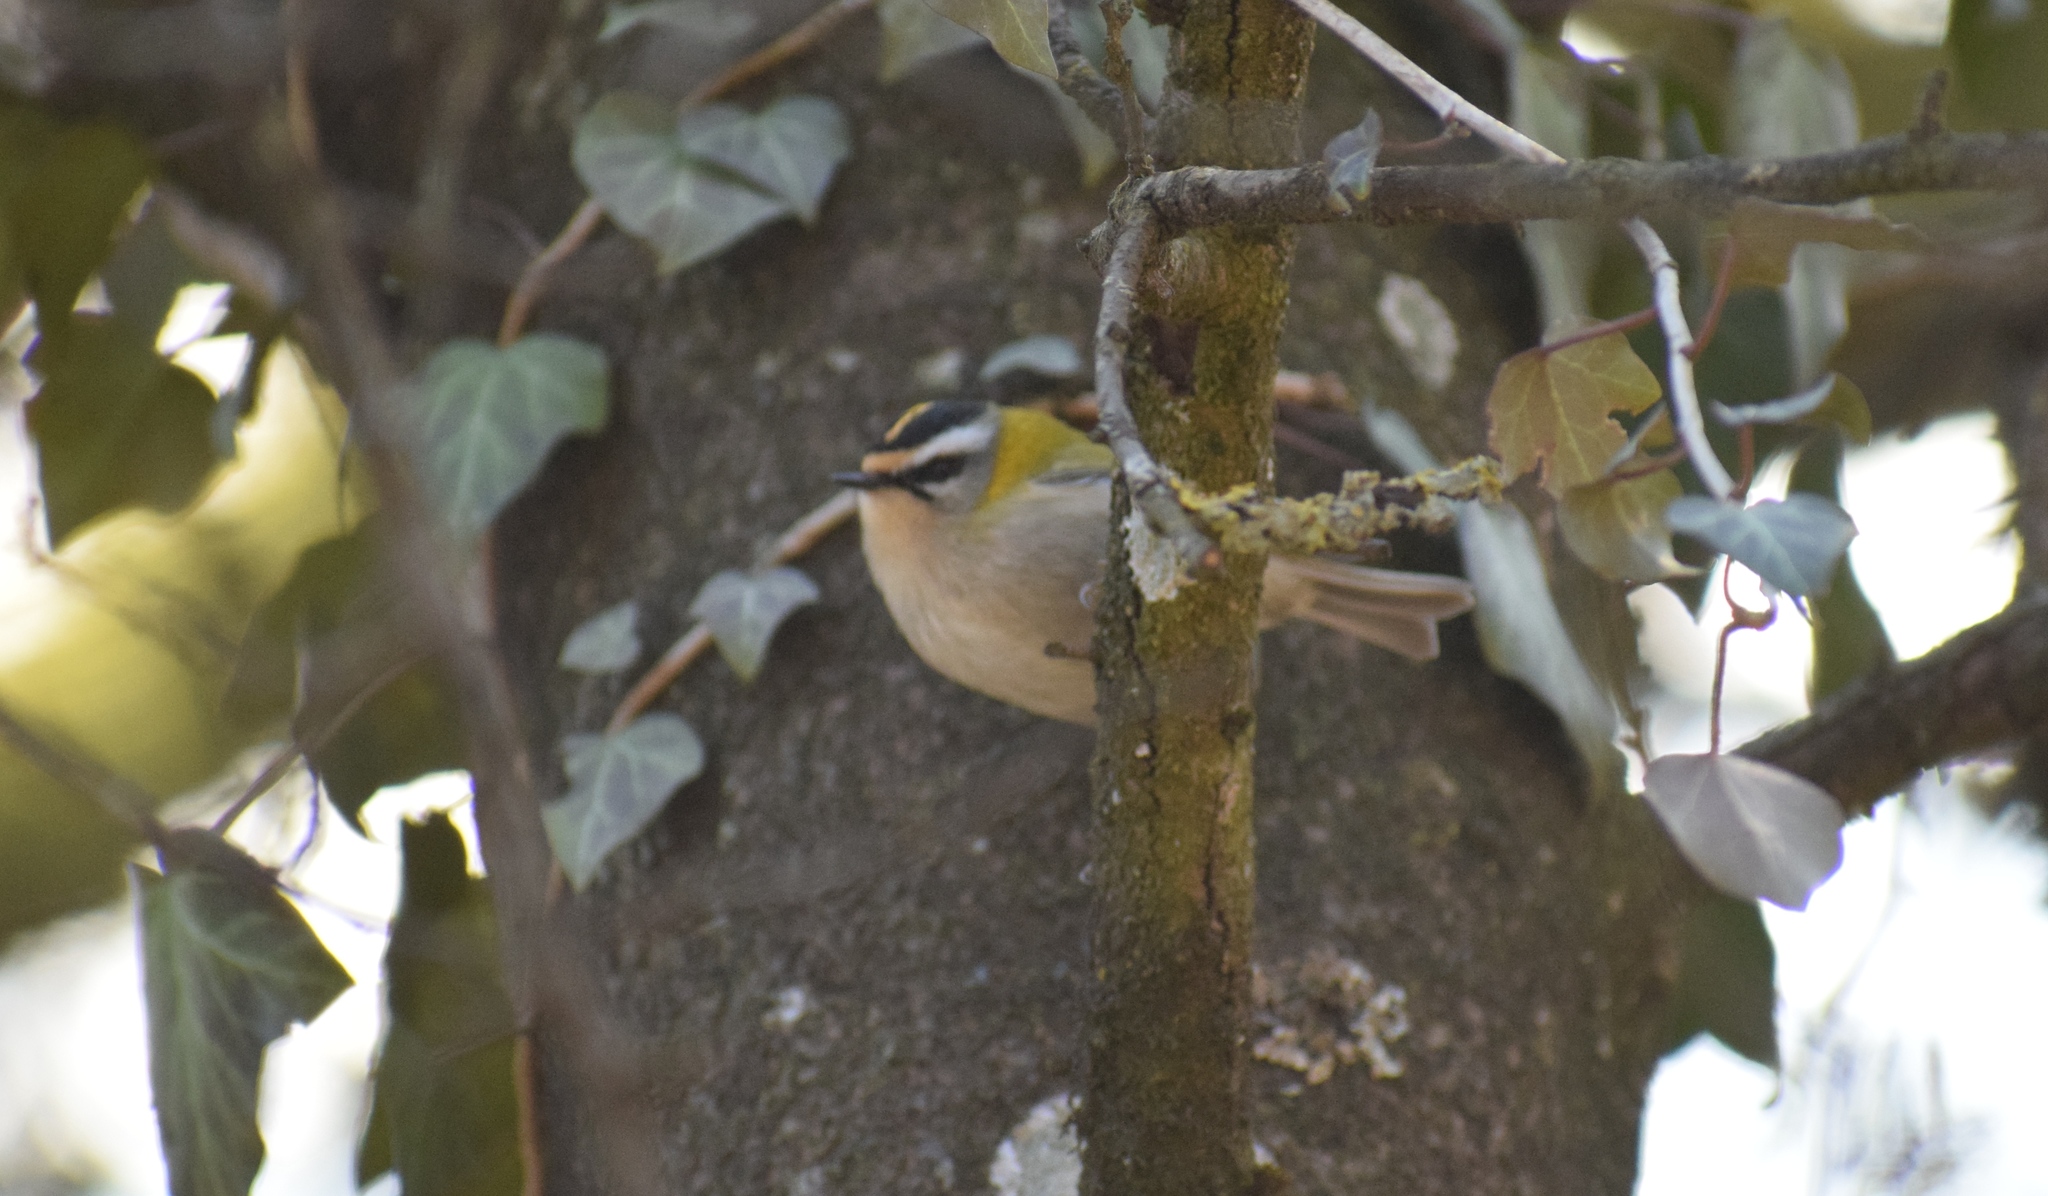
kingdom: Animalia
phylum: Chordata
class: Aves
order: Passeriformes
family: Regulidae
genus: Regulus
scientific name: Regulus ignicapilla
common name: Firecrest
